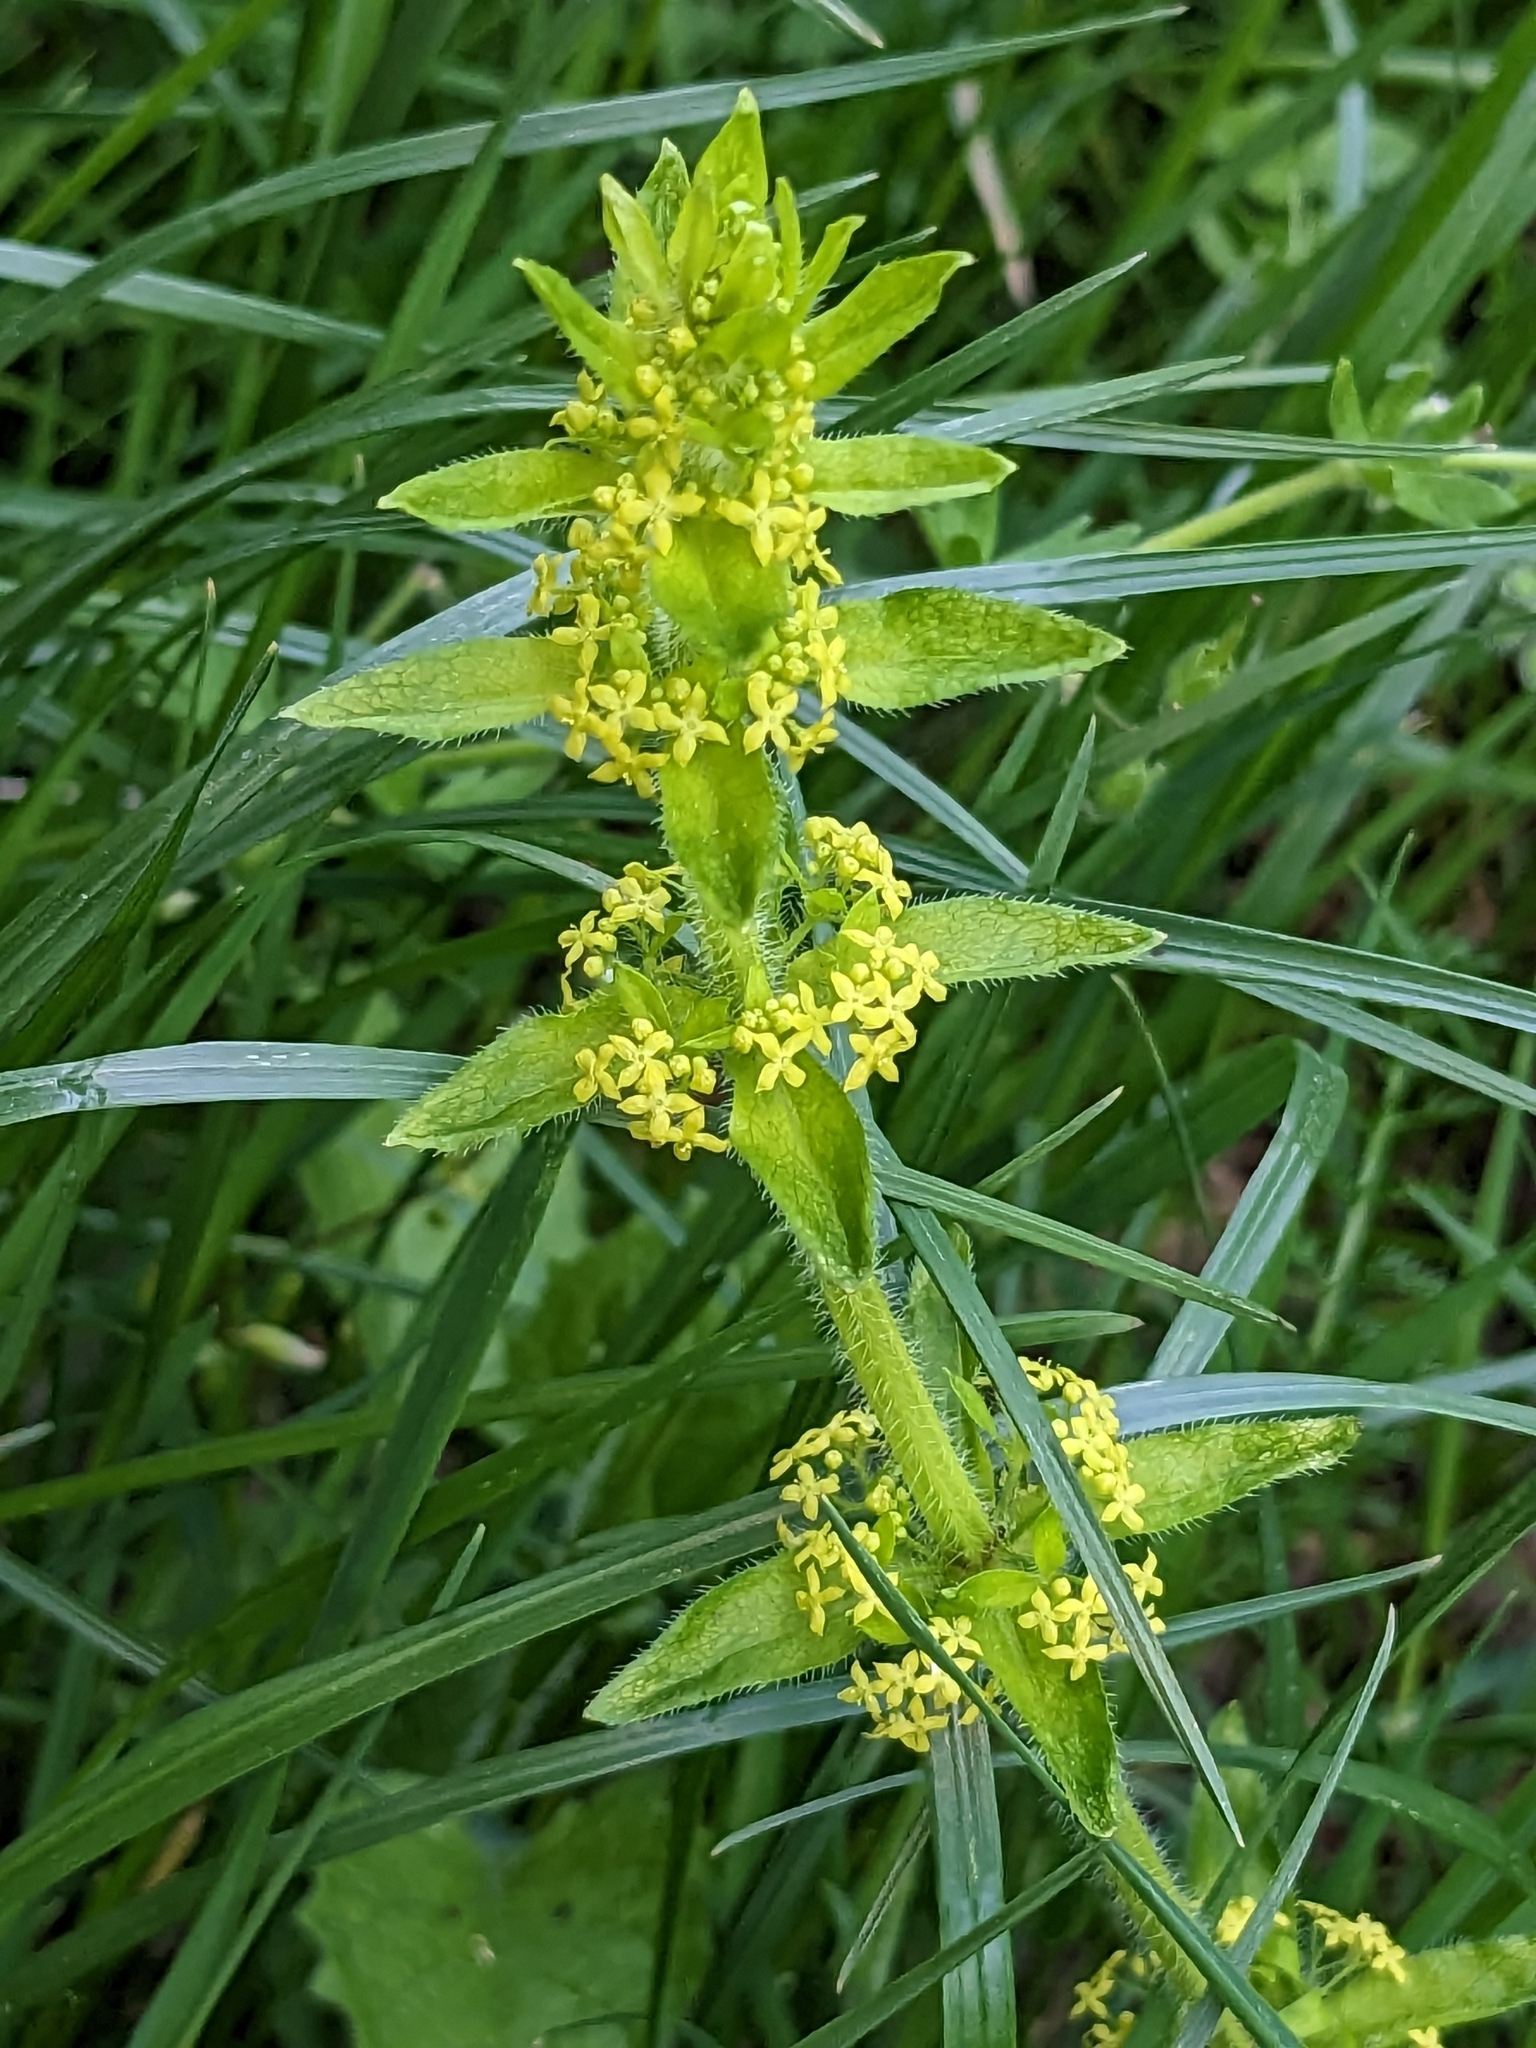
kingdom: Plantae
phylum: Tracheophyta
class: Magnoliopsida
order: Gentianales
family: Rubiaceae
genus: Cruciata
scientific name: Cruciata laevipes
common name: Crosswort
